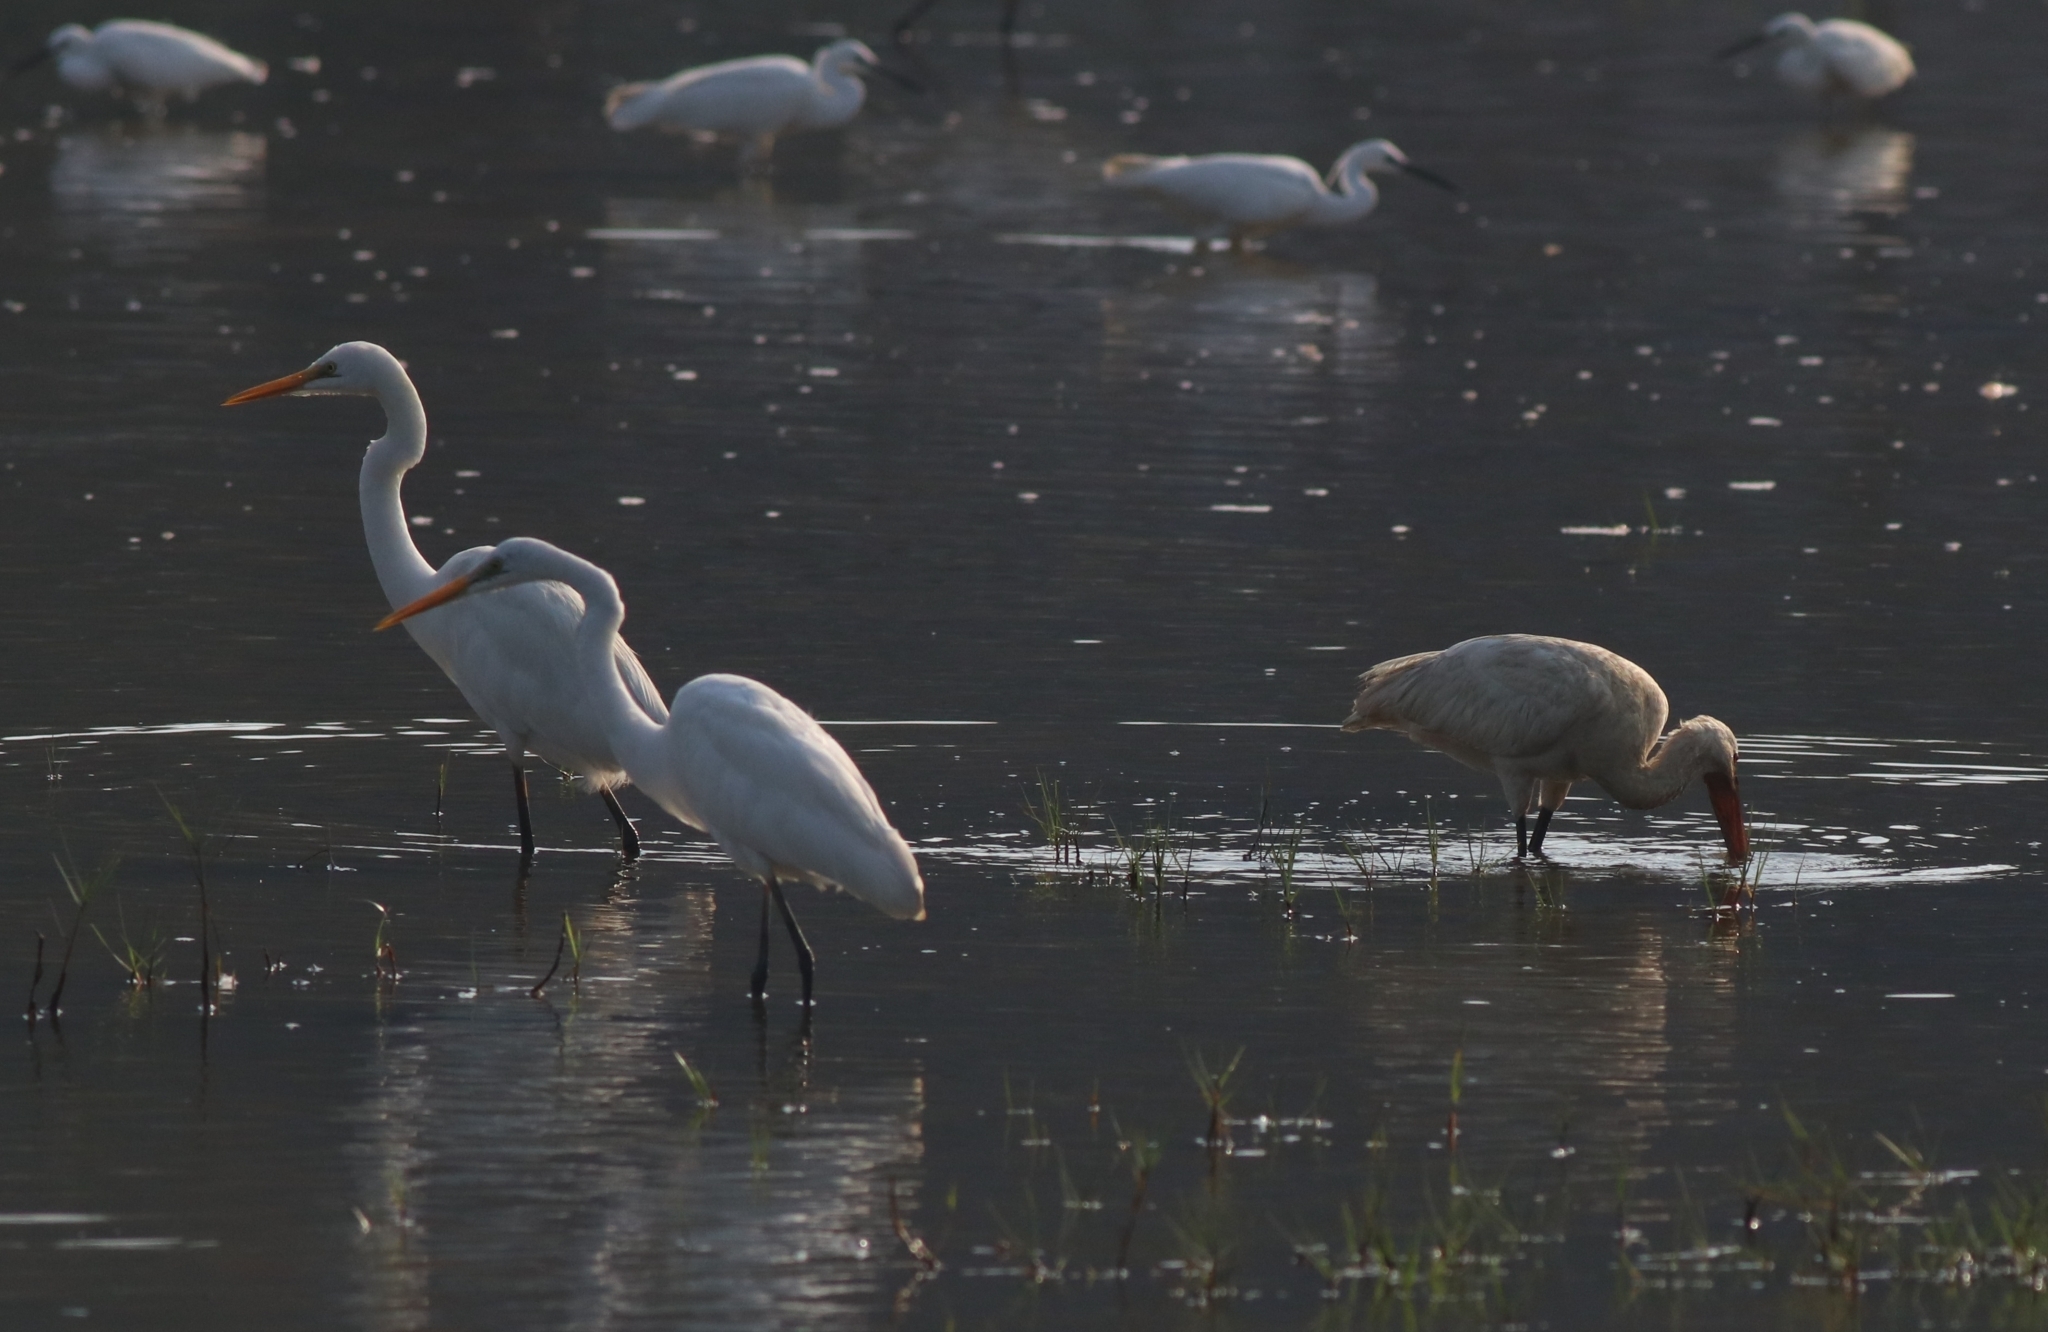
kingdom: Animalia
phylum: Chordata
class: Aves
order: Pelecaniformes
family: Ardeidae
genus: Ardea
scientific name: Ardea alba
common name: Great egret
